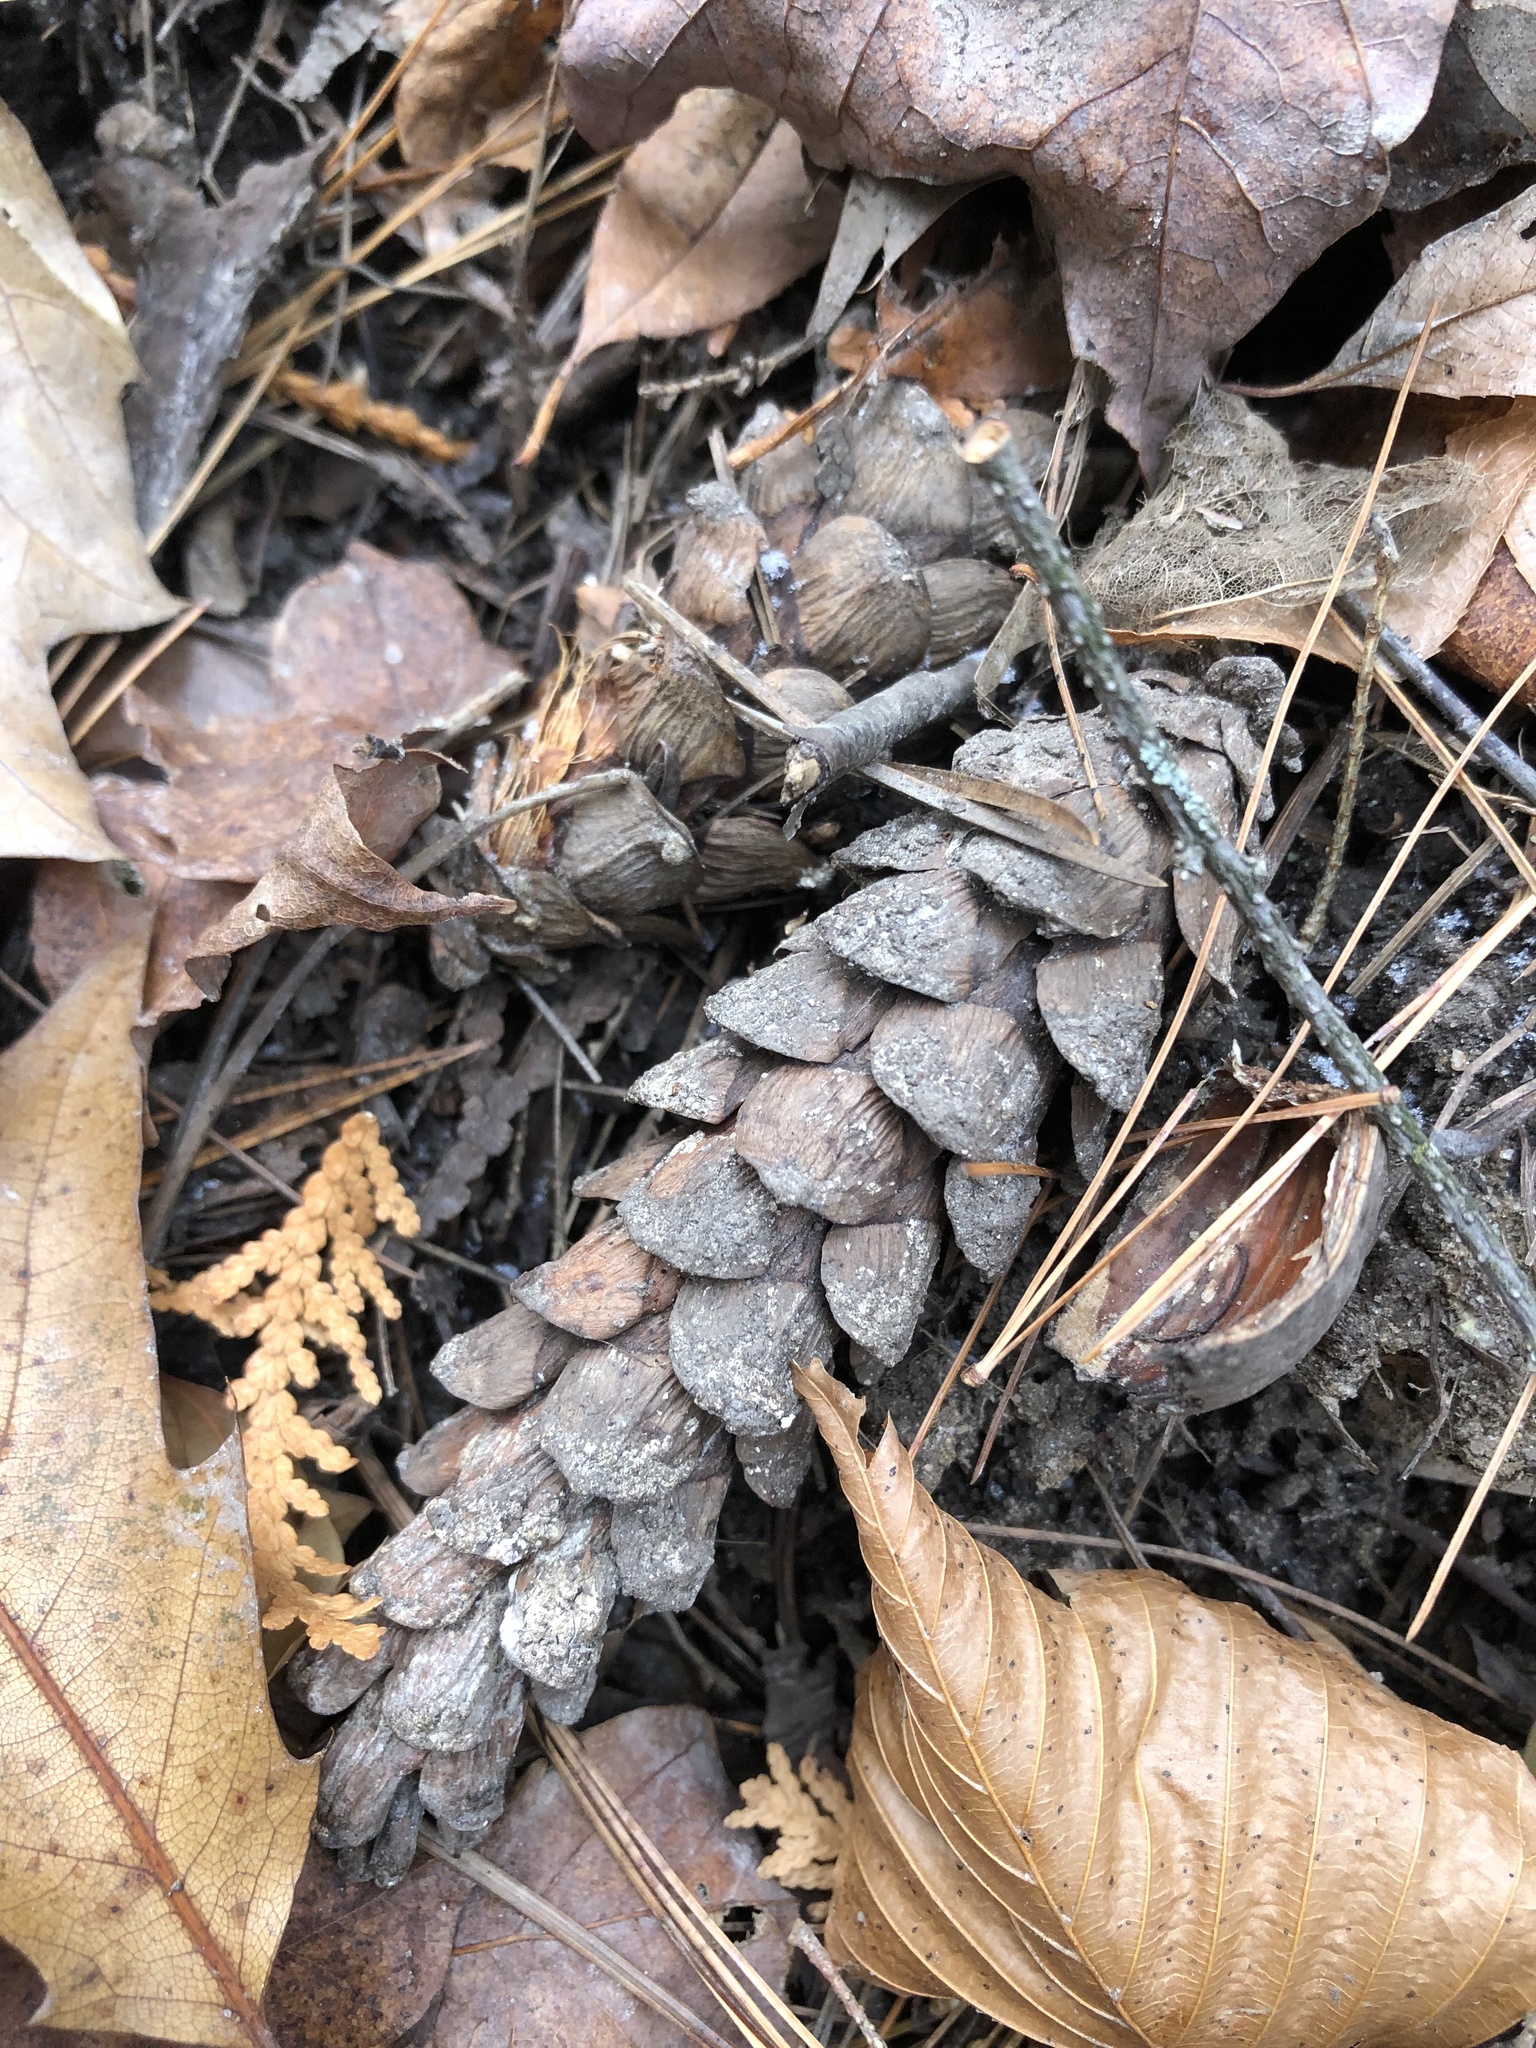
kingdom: Plantae
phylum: Tracheophyta
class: Pinopsida
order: Pinales
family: Pinaceae
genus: Pinus
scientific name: Pinus strobus
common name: Weymouth pine
